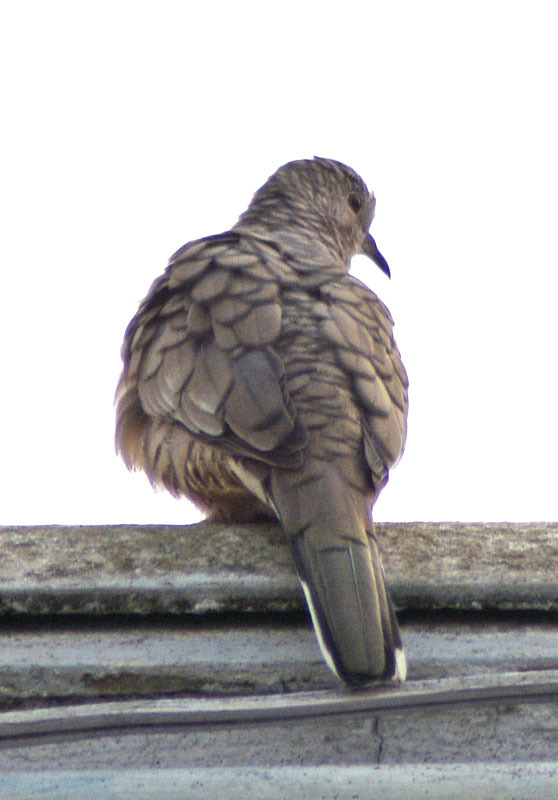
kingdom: Animalia
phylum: Chordata
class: Aves
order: Columbiformes
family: Columbidae
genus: Columbina
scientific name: Columbina inca
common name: Inca dove
